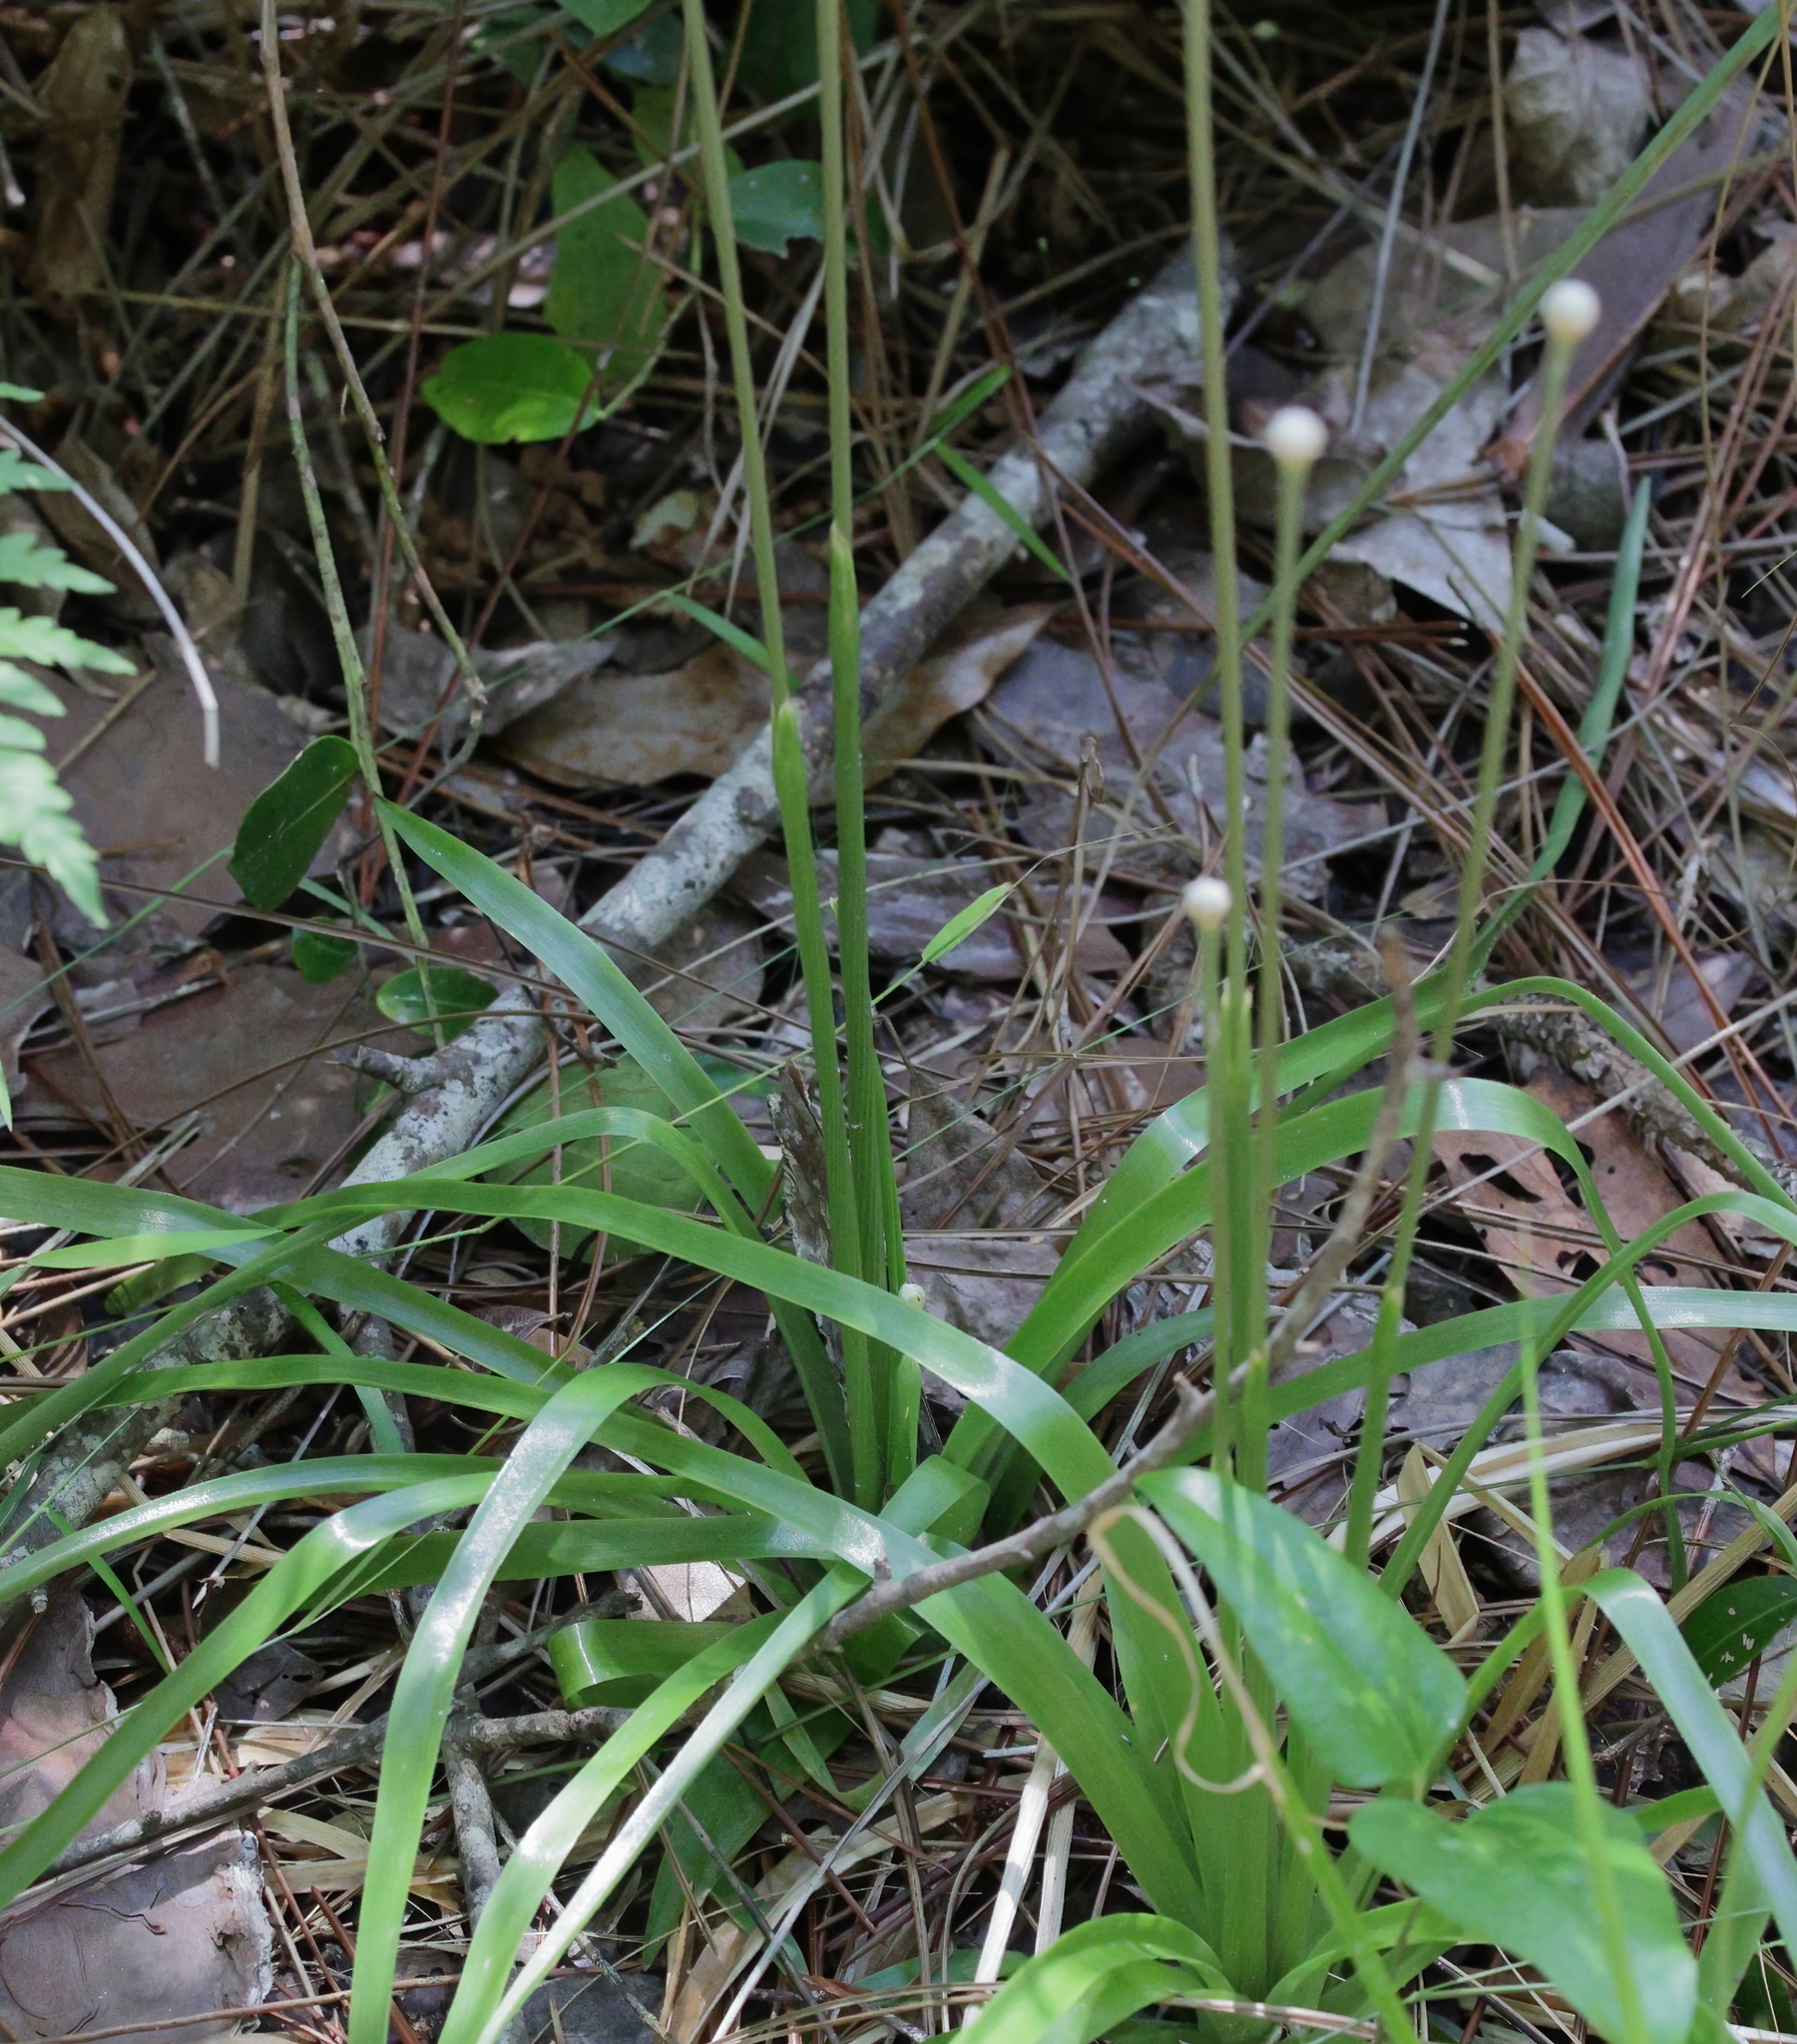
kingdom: Plantae
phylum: Tracheophyta
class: Liliopsida
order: Poales
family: Eriocaulaceae
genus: Eriocaulon
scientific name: Eriocaulon decangulare
